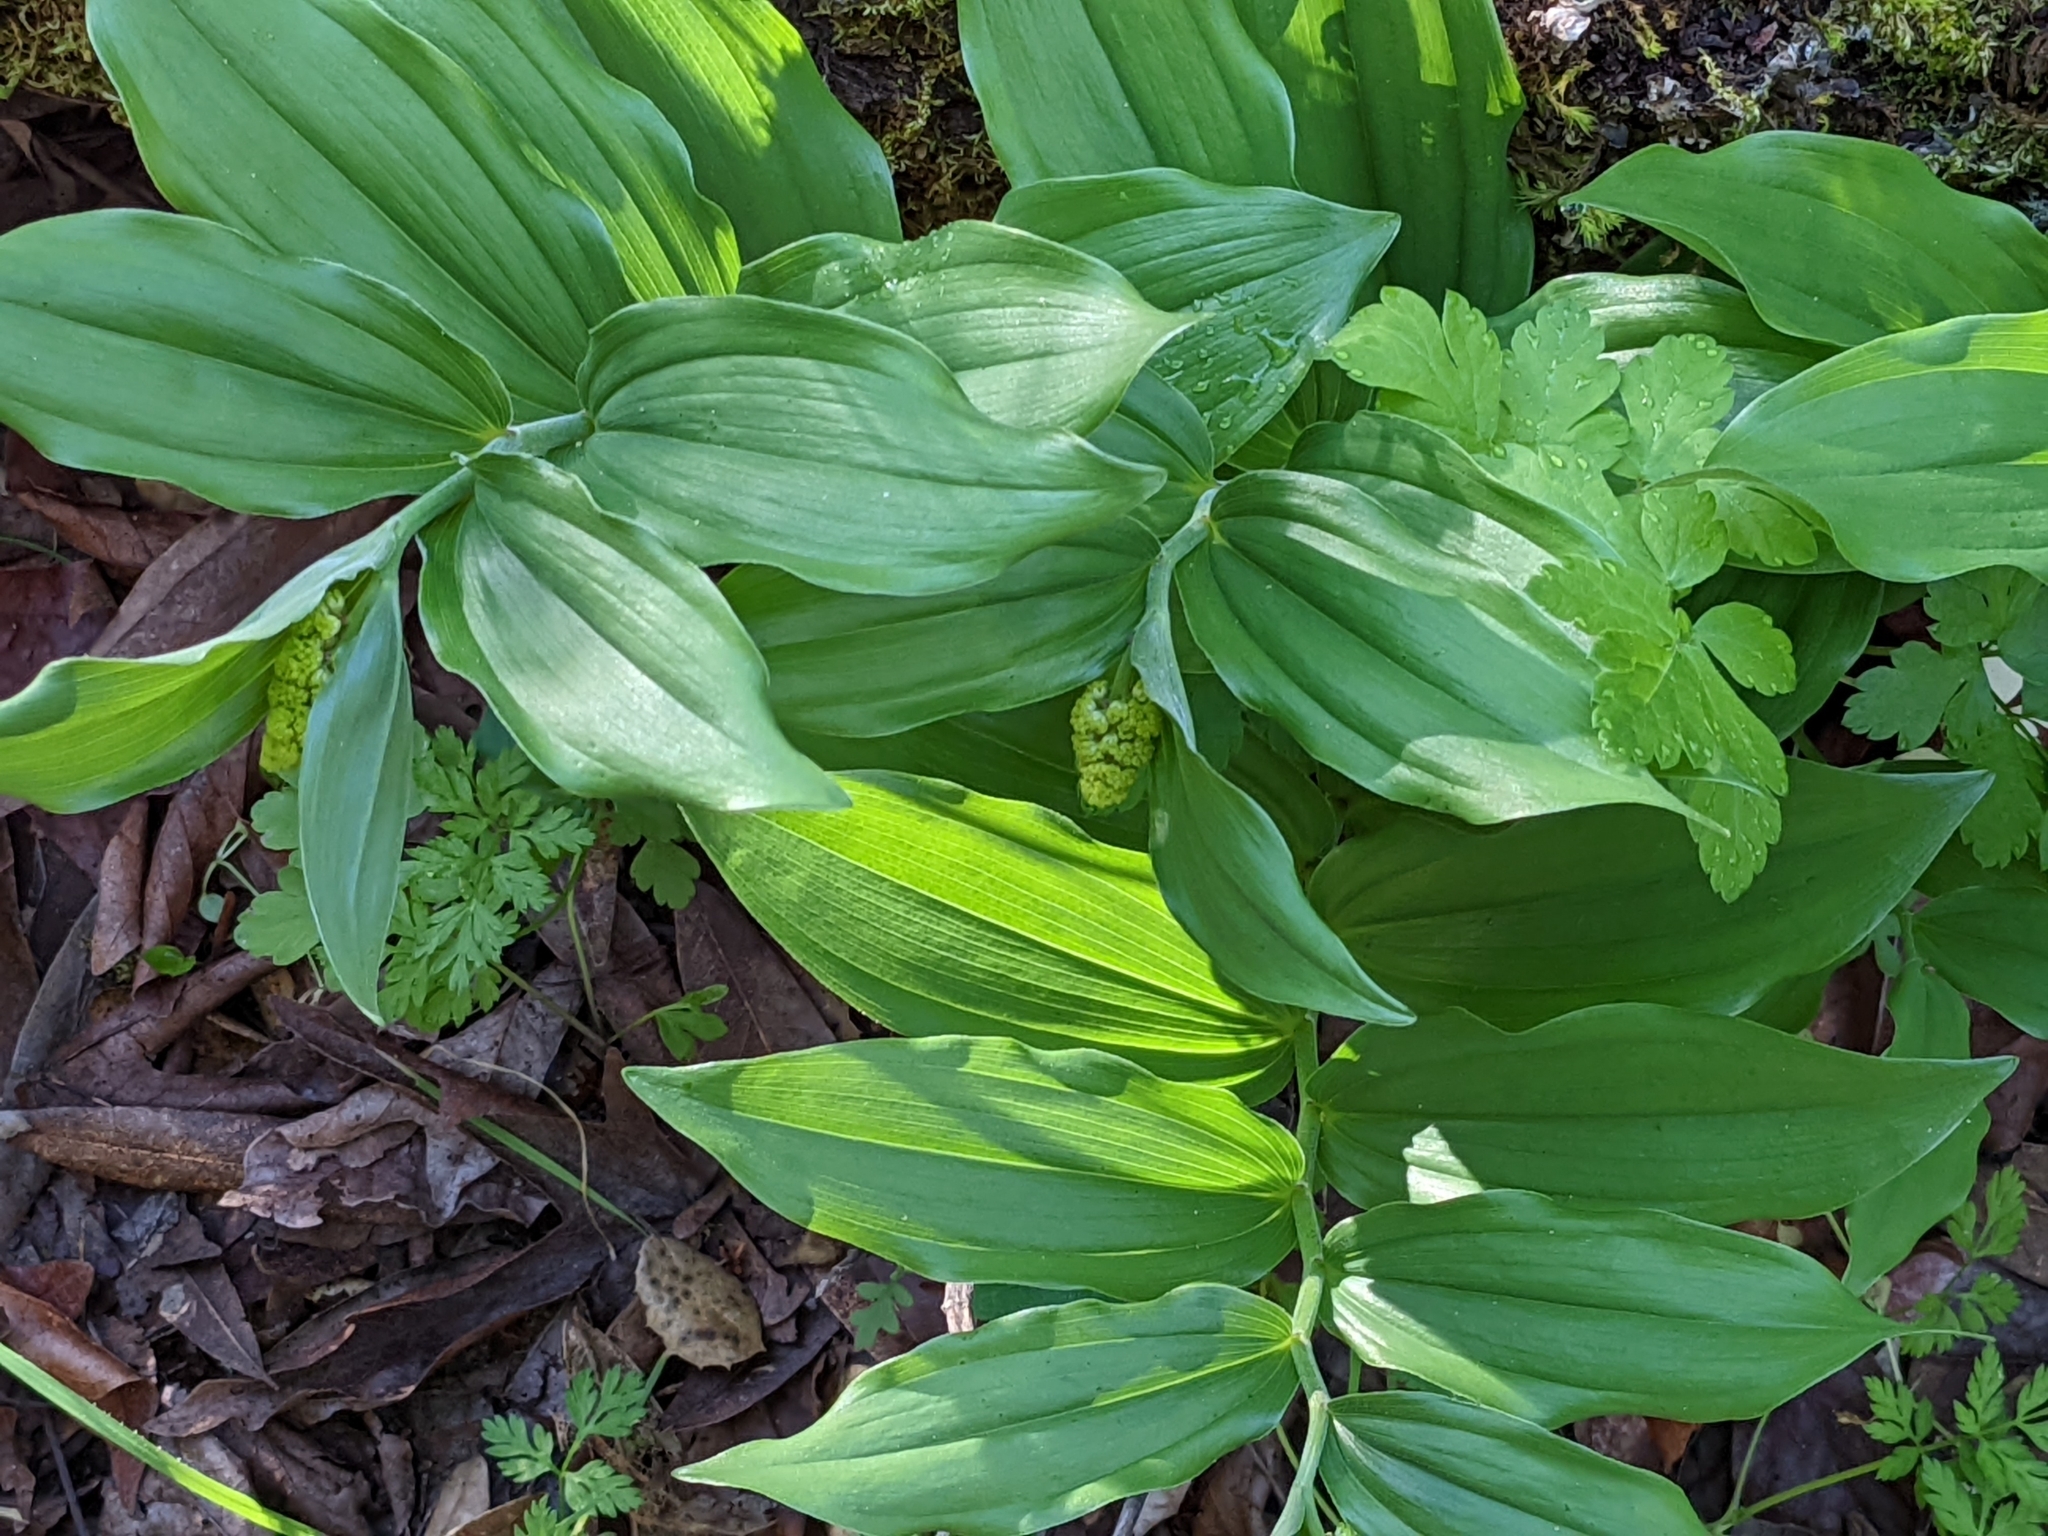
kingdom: Plantae
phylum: Tracheophyta
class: Liliopsida
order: Asparagales
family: Asparagaceae
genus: Maianthemum
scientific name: Maianthemum racemosum
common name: False spikenard
